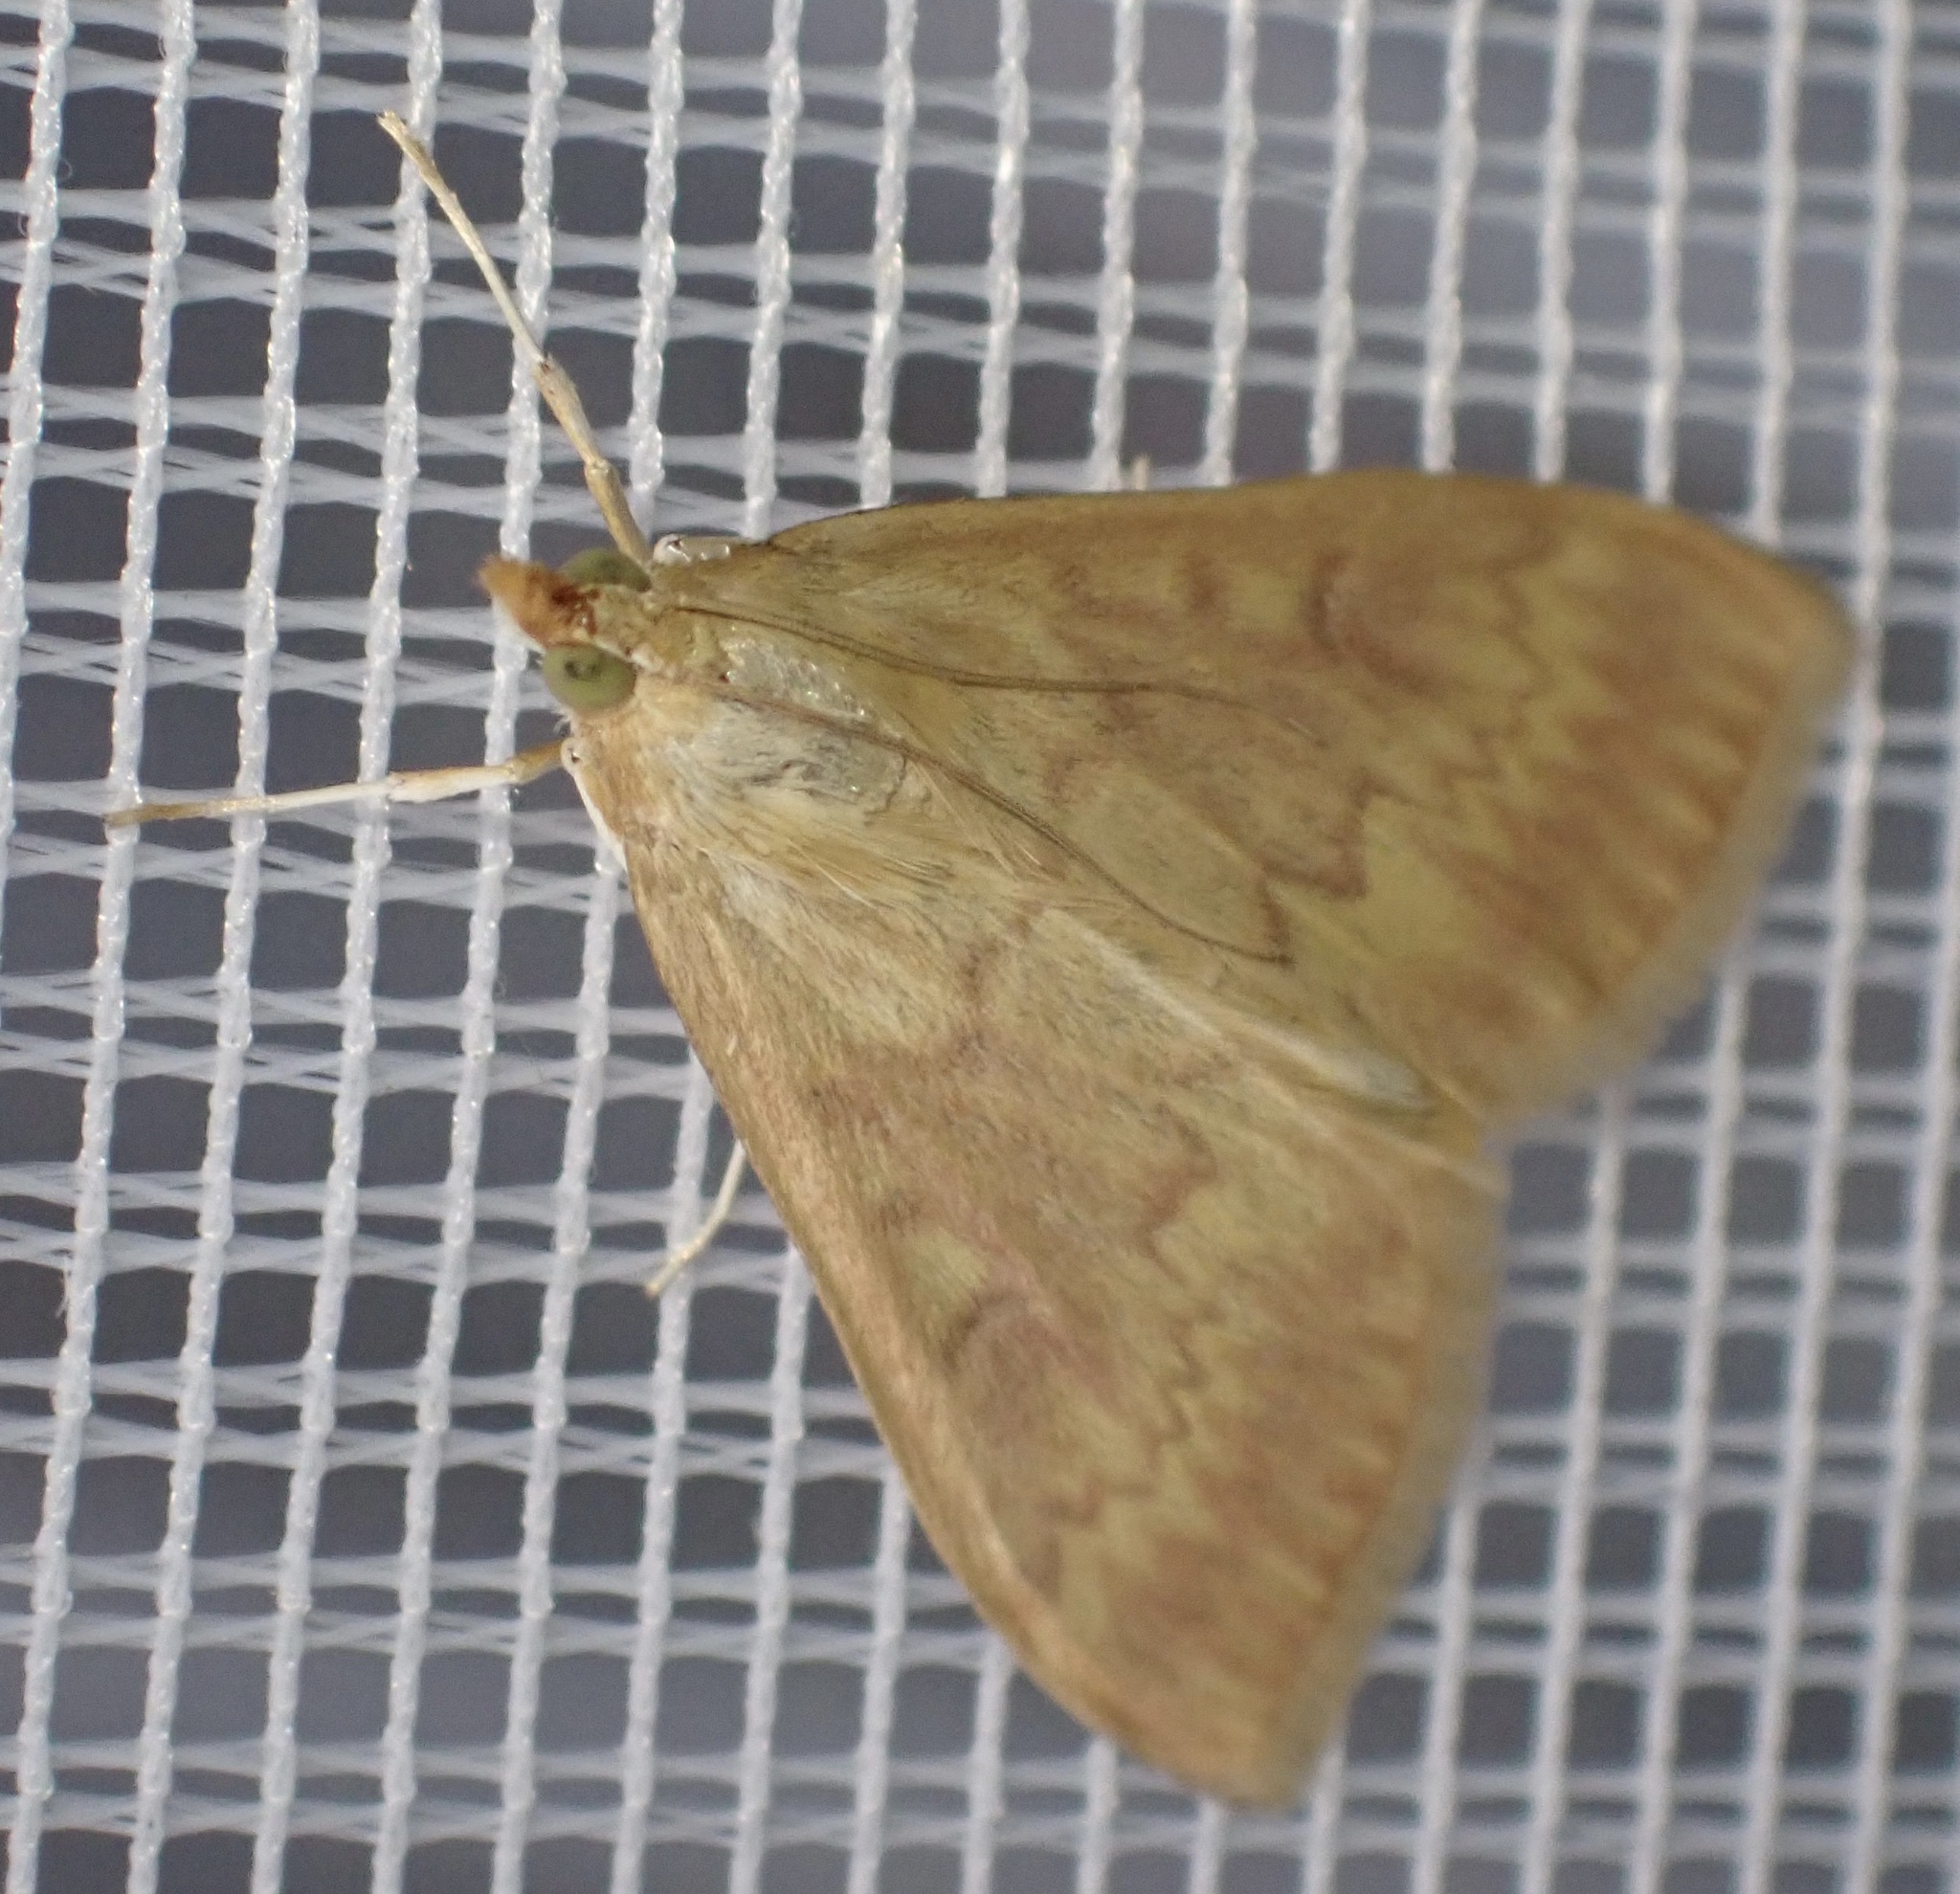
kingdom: Animalia
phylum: Arthropoda
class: Insecta
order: Lepidoptera
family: Crambidae
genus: Ostrinia
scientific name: Ostrinia nubilalis
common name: European corn borer
